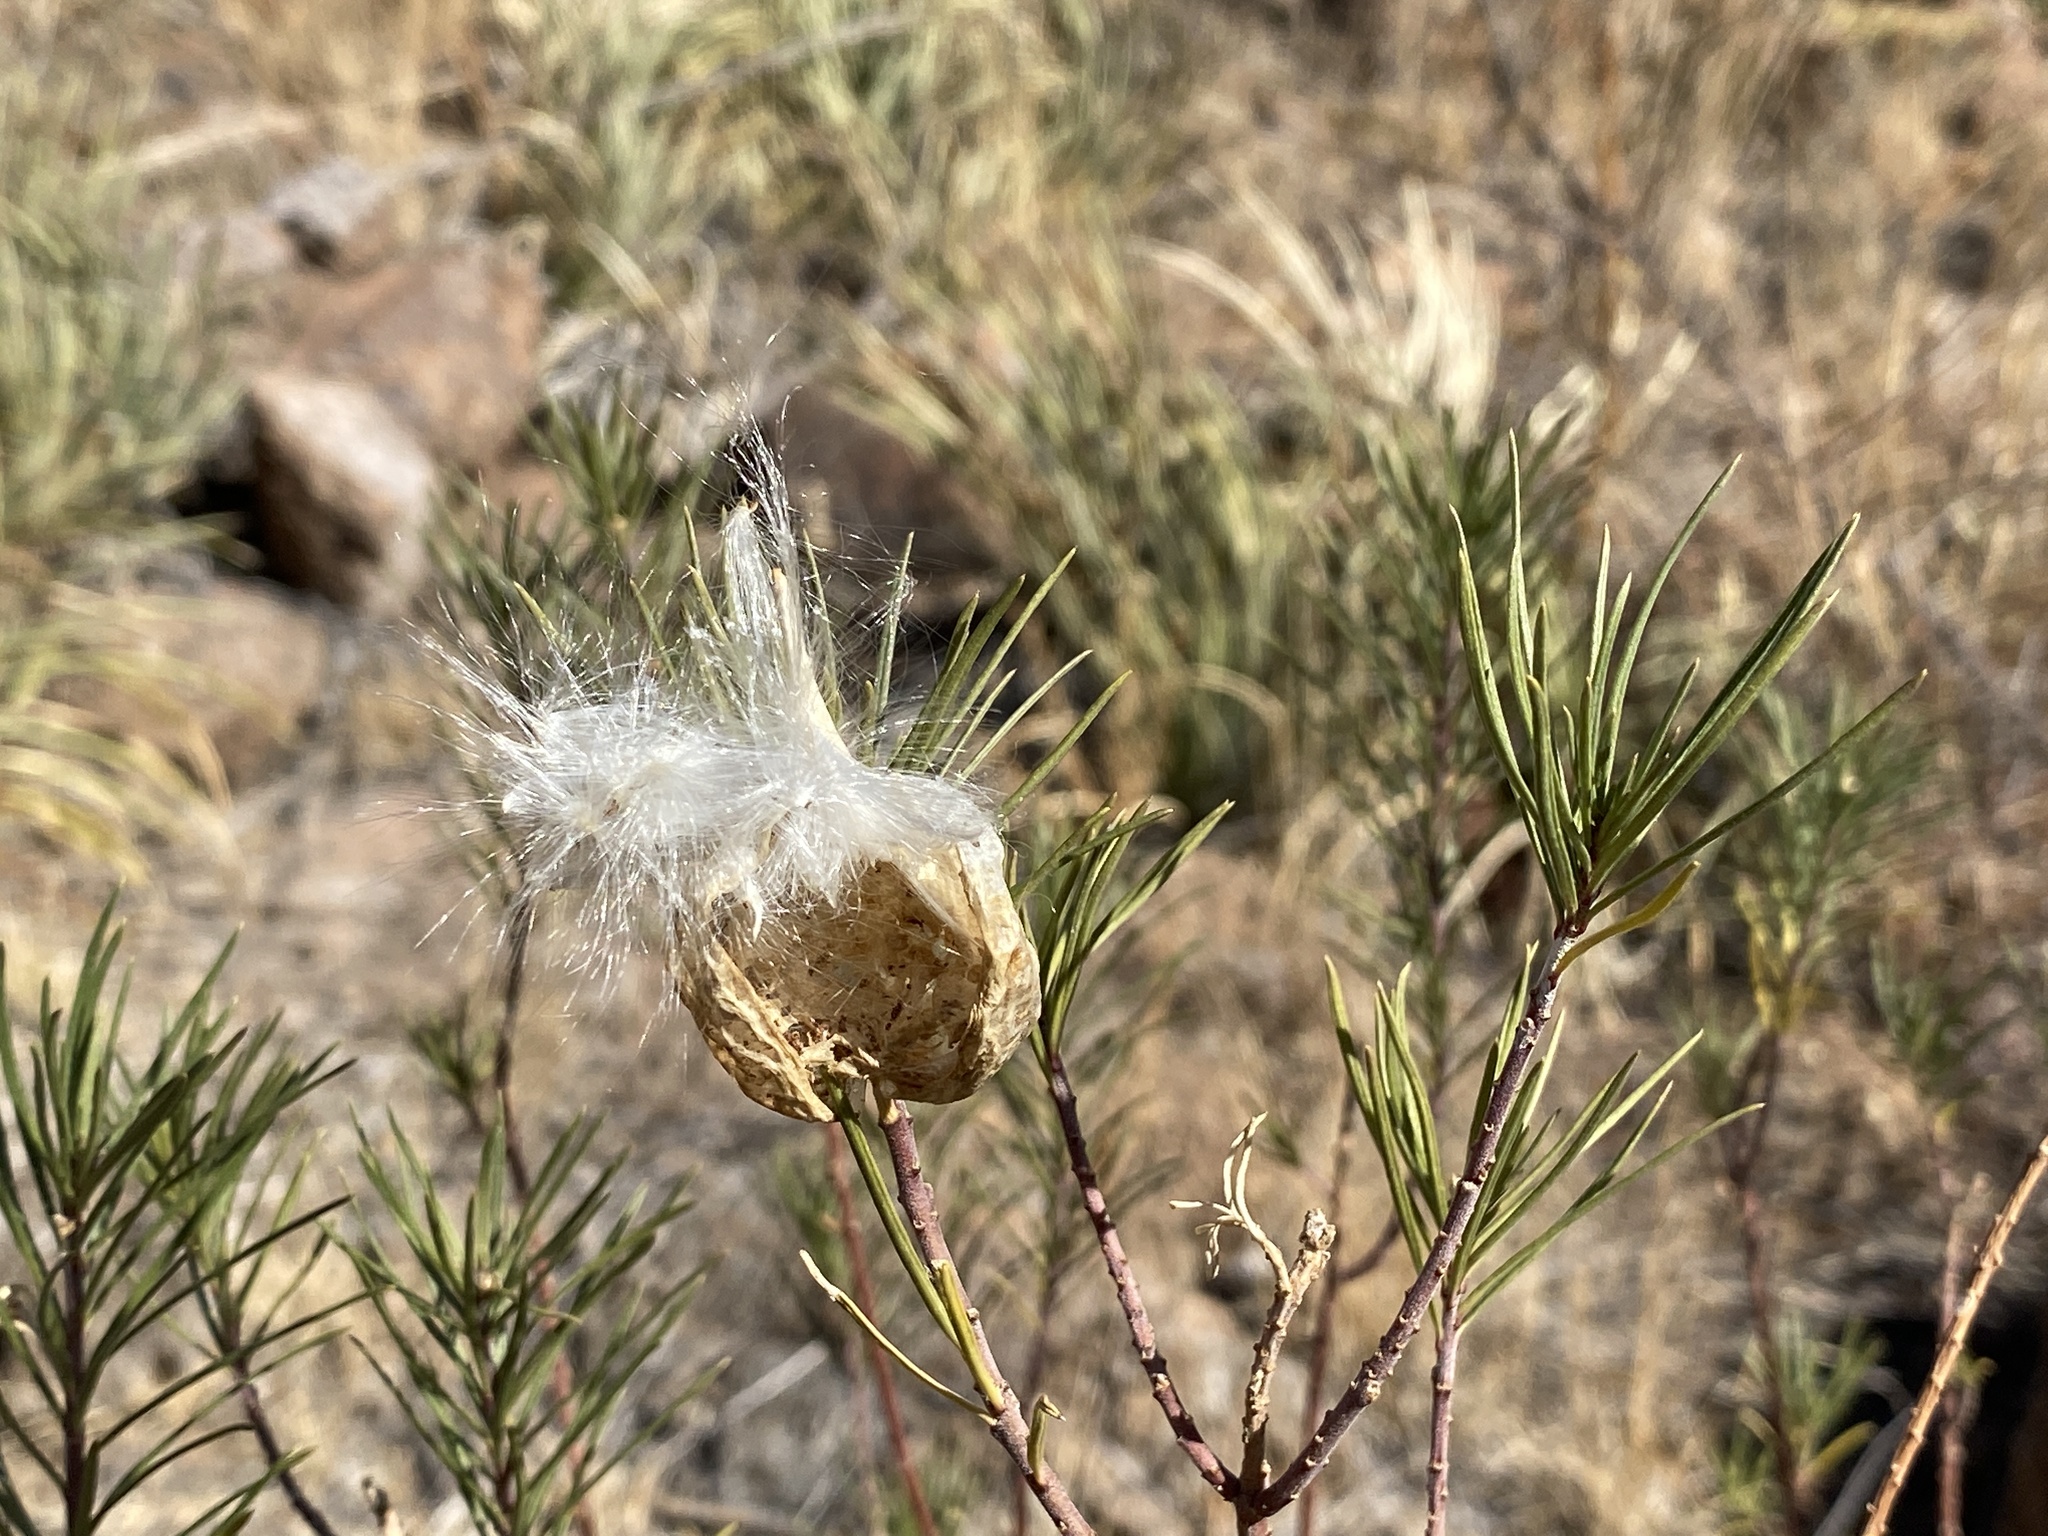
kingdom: Plantae
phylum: Tracheophyta
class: Magnoliopsida
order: Gentianales
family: Apocynaceae
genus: Asclepias
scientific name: Asclepias linaria
